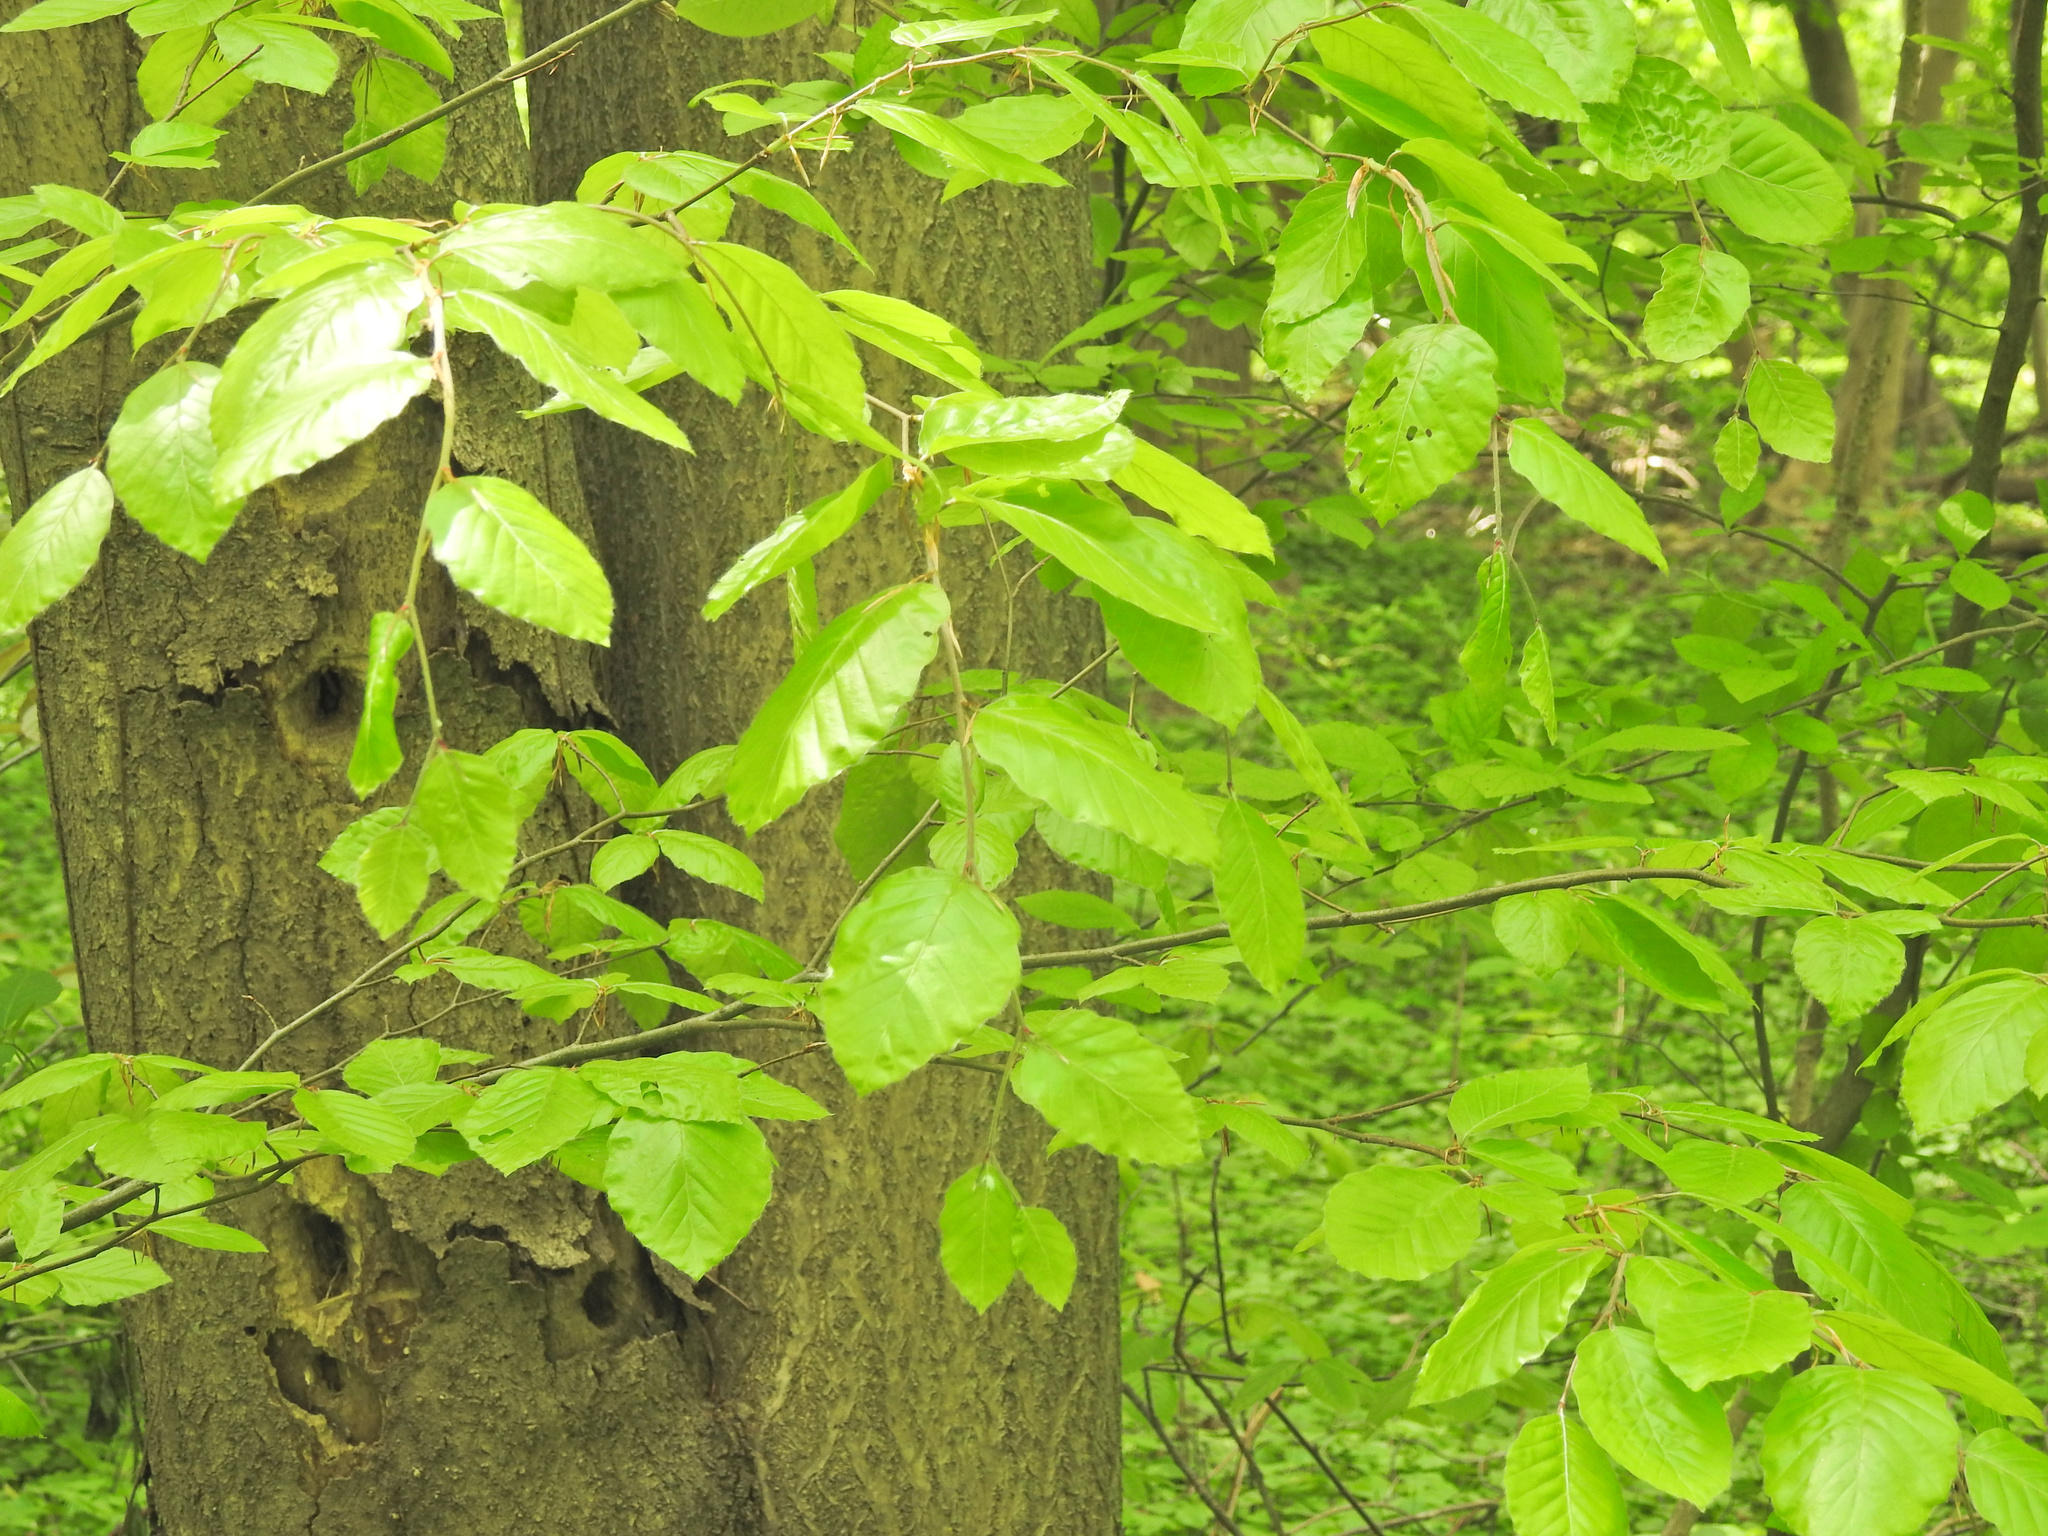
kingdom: Plantae
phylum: Tracheophyta
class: Magnoliopsida
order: Fagales
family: Fagaceae
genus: Fagus
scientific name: Fagus sylvatica
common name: Beech
